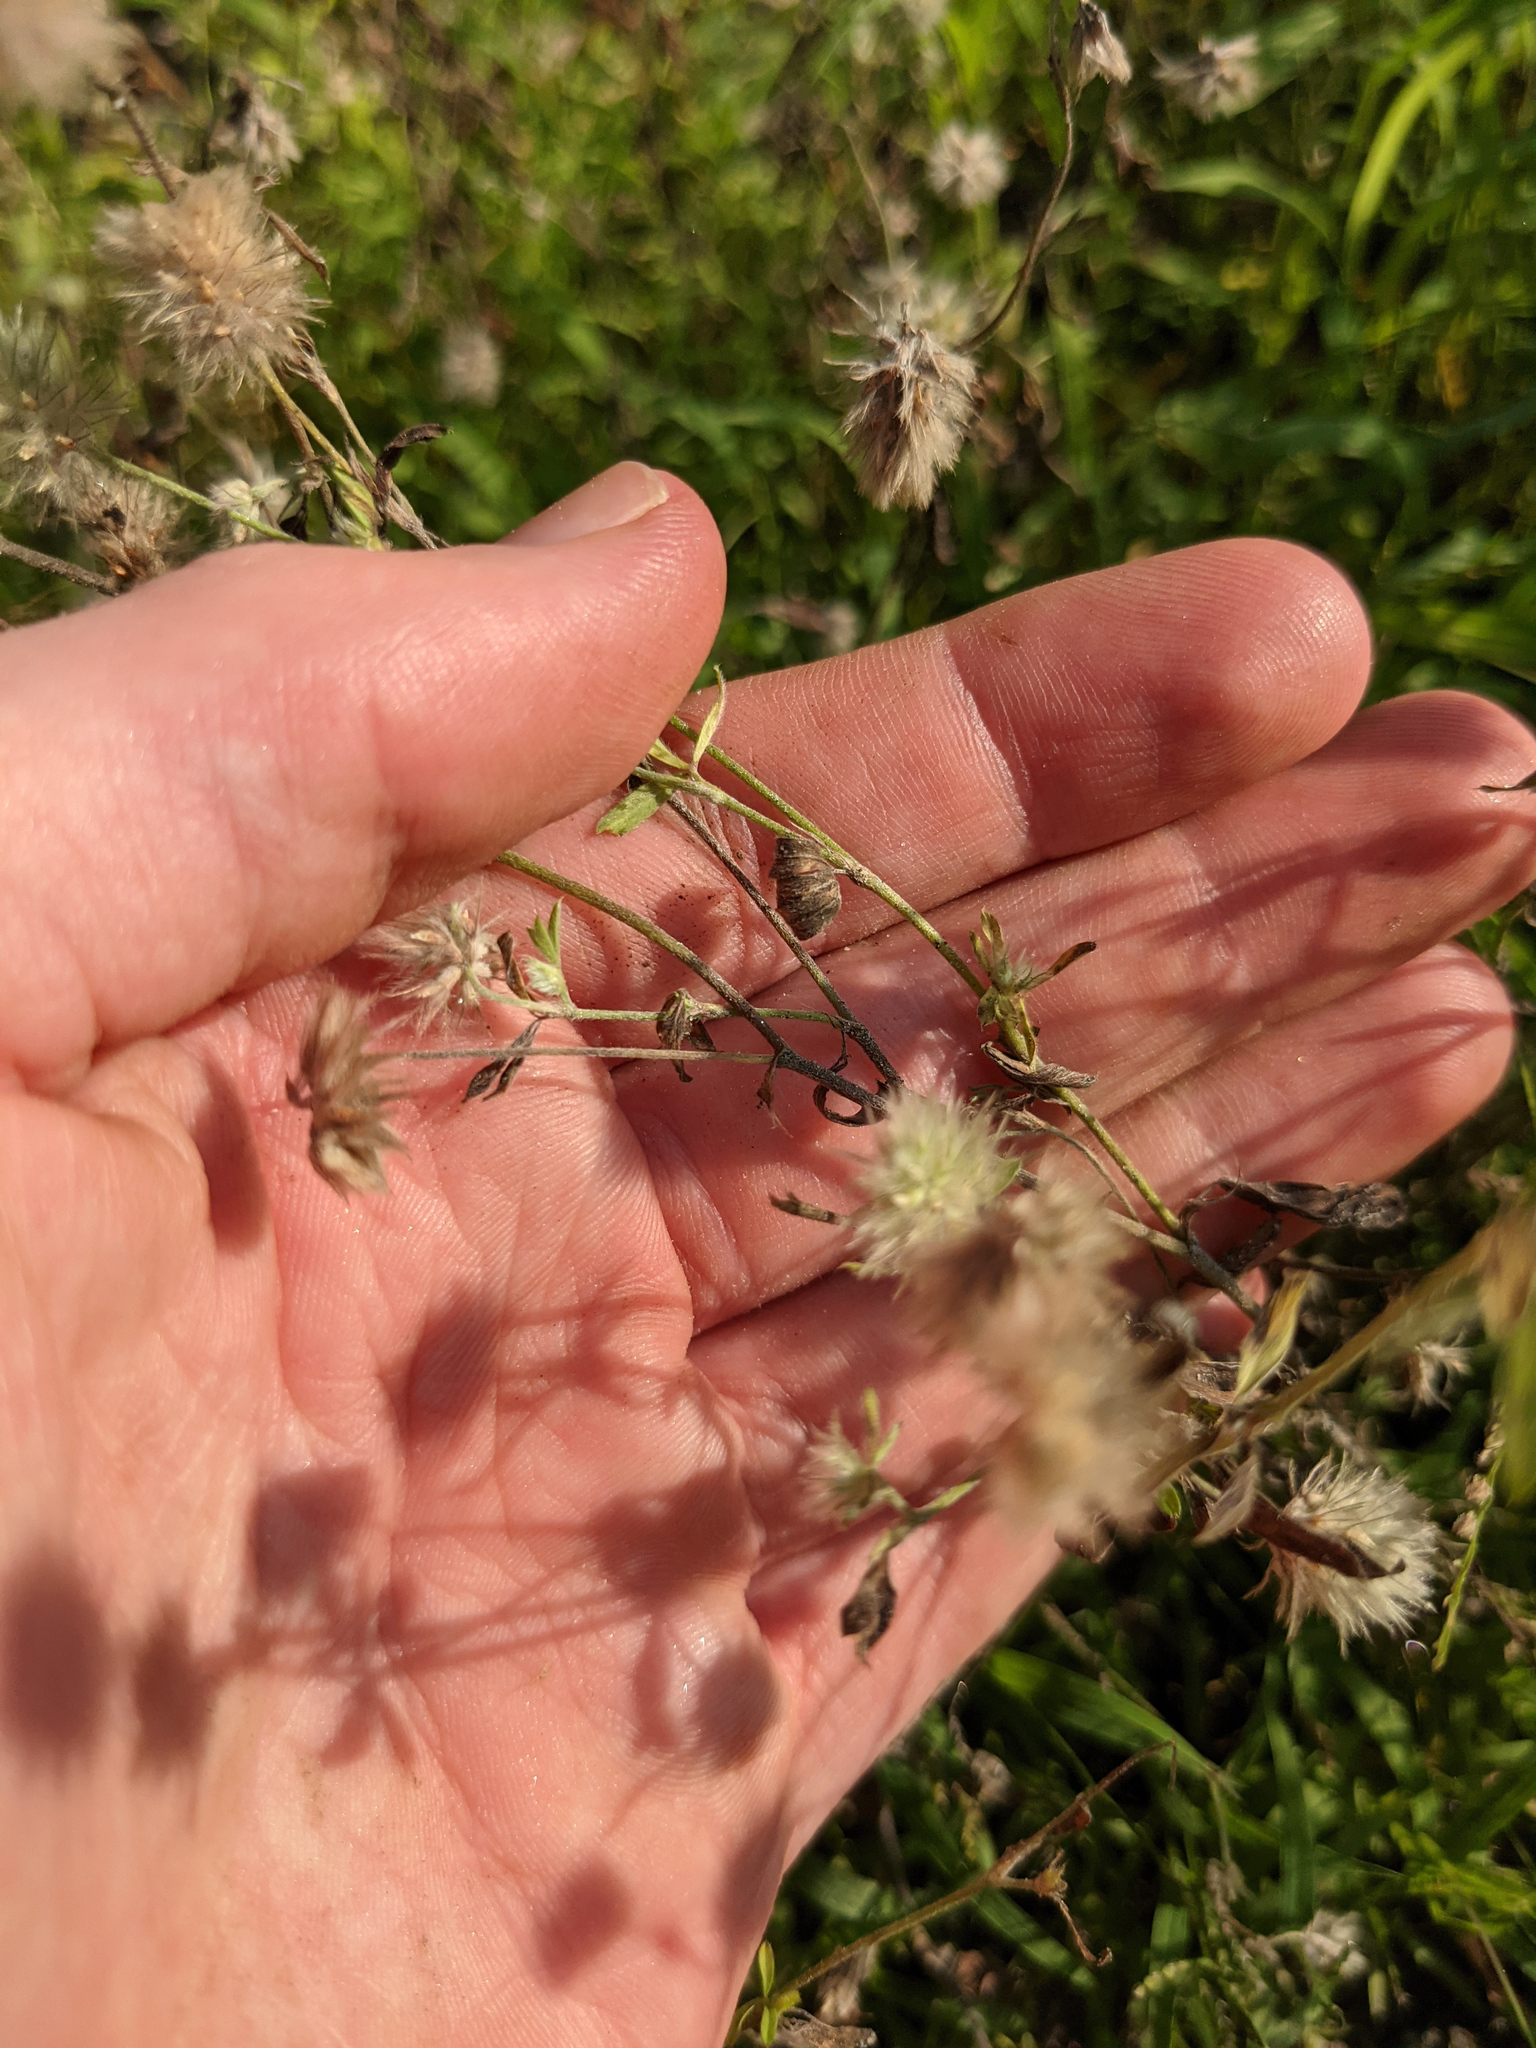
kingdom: Plantae
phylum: Tracheophyta
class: Magnoliopsida
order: Fabales
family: Fabaceae
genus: Trifolium
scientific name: Trifolium arvense
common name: Hare's-foot clover
